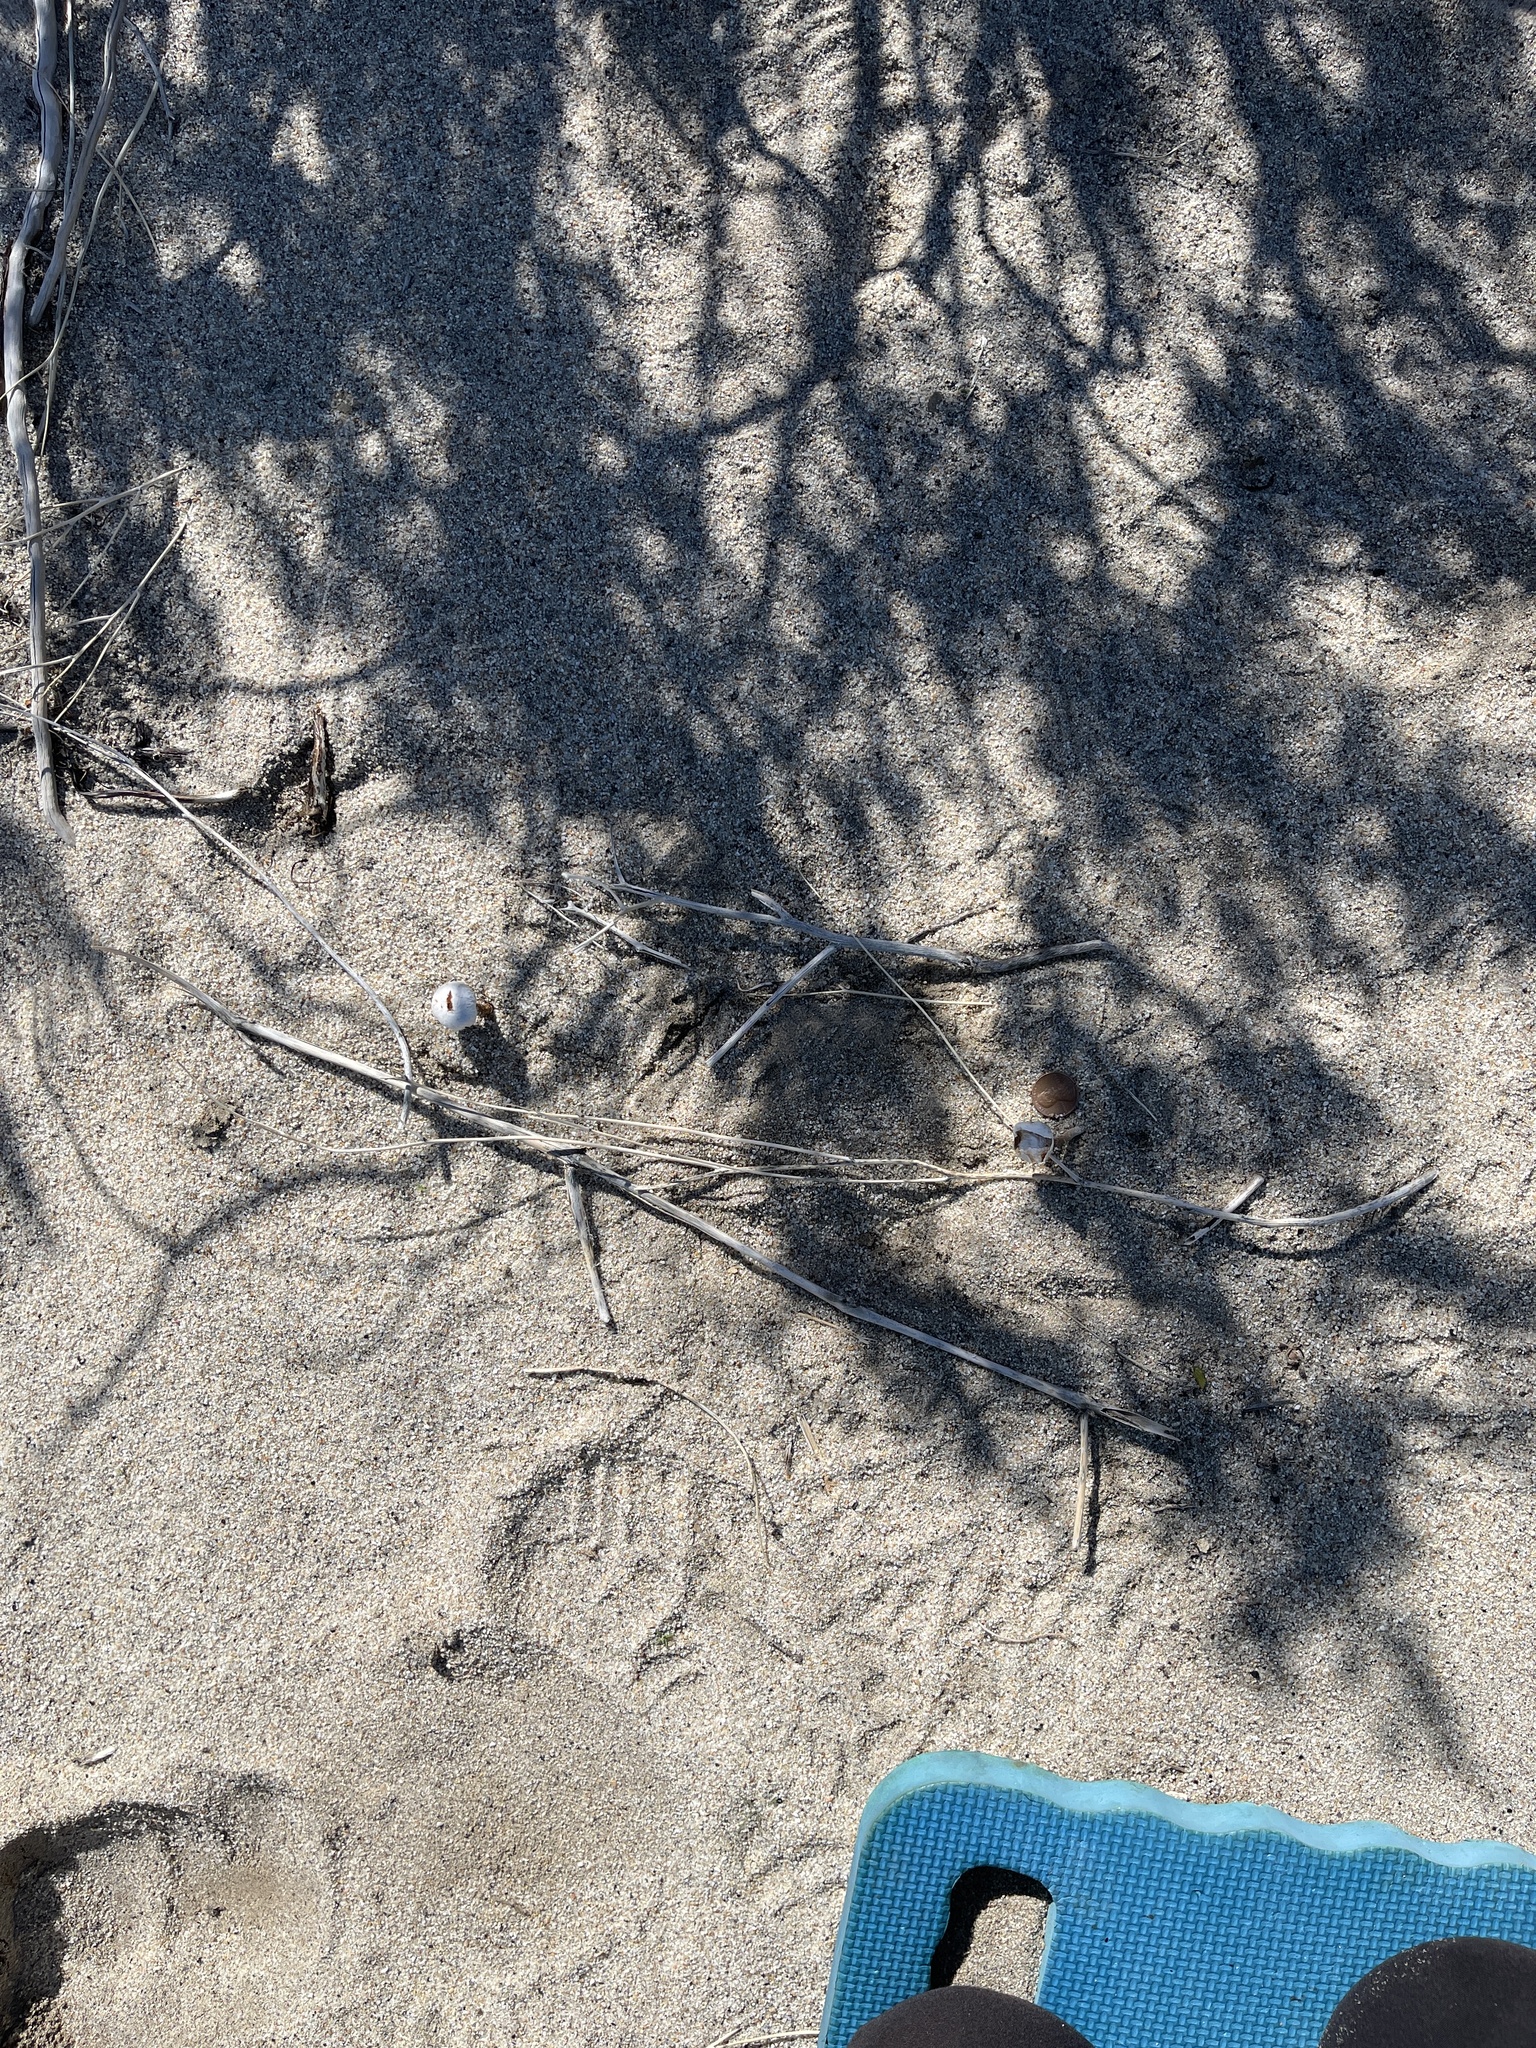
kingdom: Fungi
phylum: Basidiomycota
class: Agaricomycetes
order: Agaricales
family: Agaricaceae
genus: Battarrea
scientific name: Battarrea phalloides
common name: Sandy stiltball
